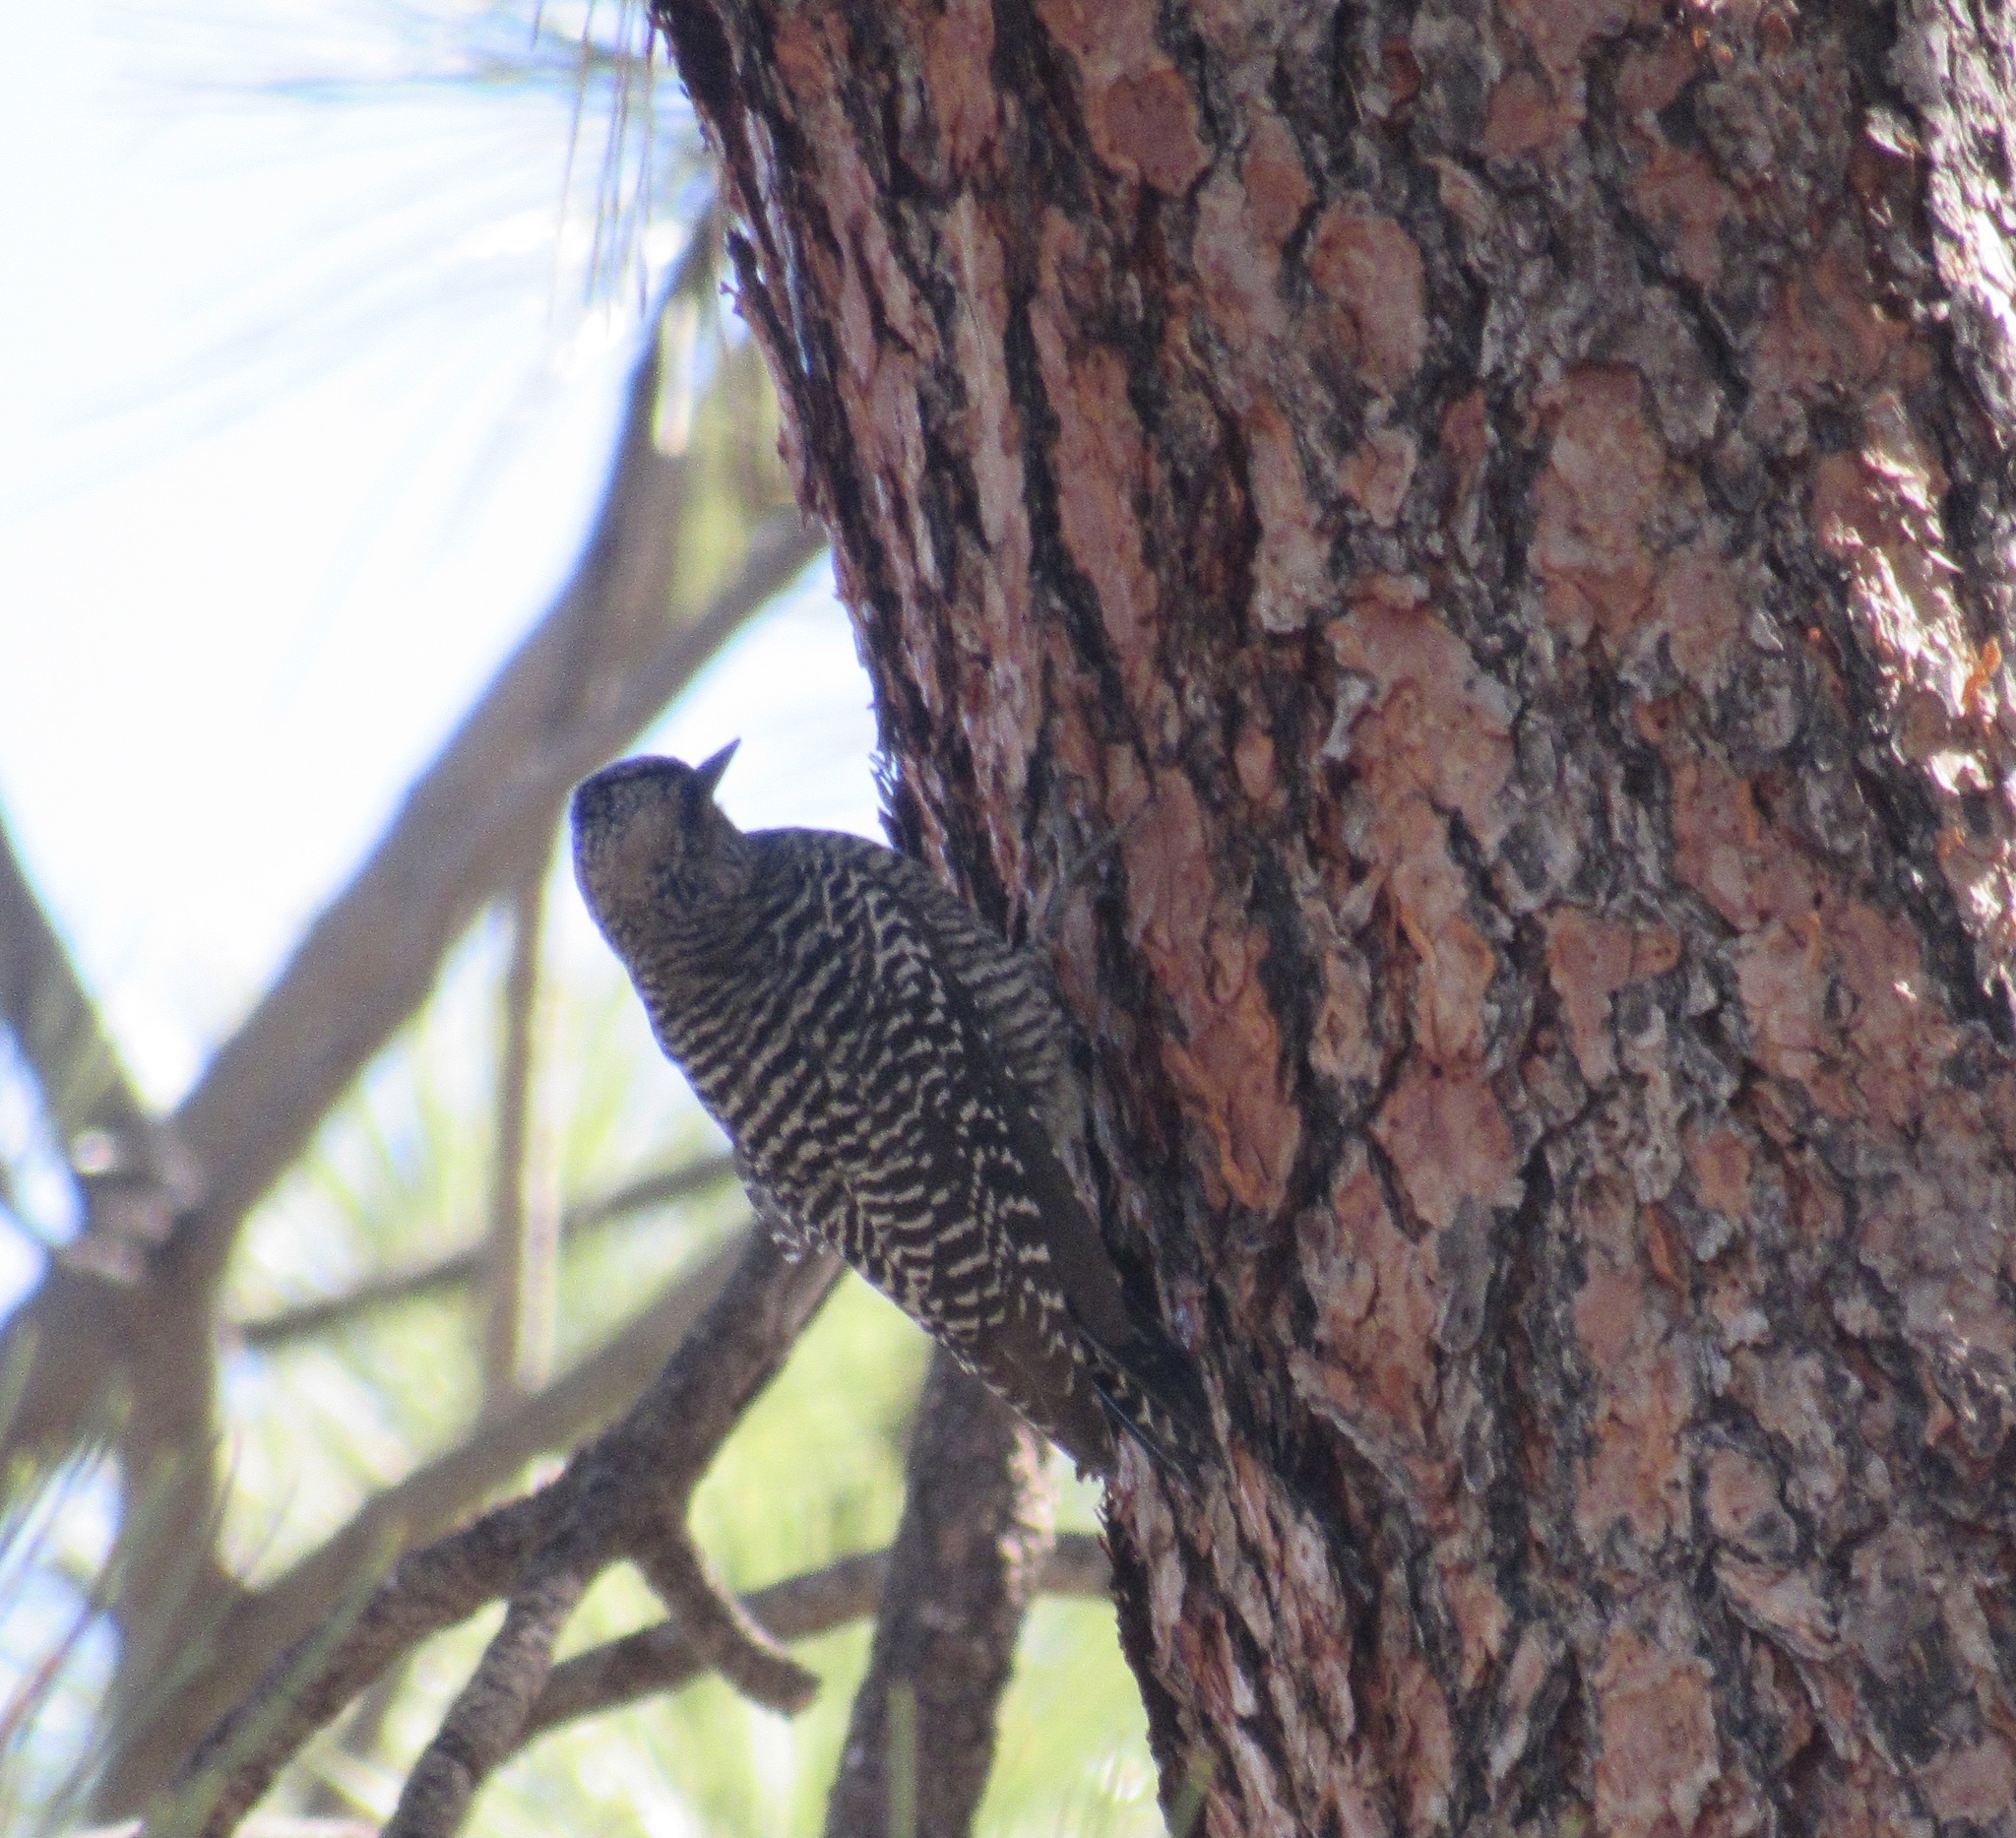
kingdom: Animalia
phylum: Chordata
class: Aves
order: Piciformes
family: Picidae
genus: Sphyrapicus
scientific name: Sphyrapicus thyroideus
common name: Williamson's sapsucker
